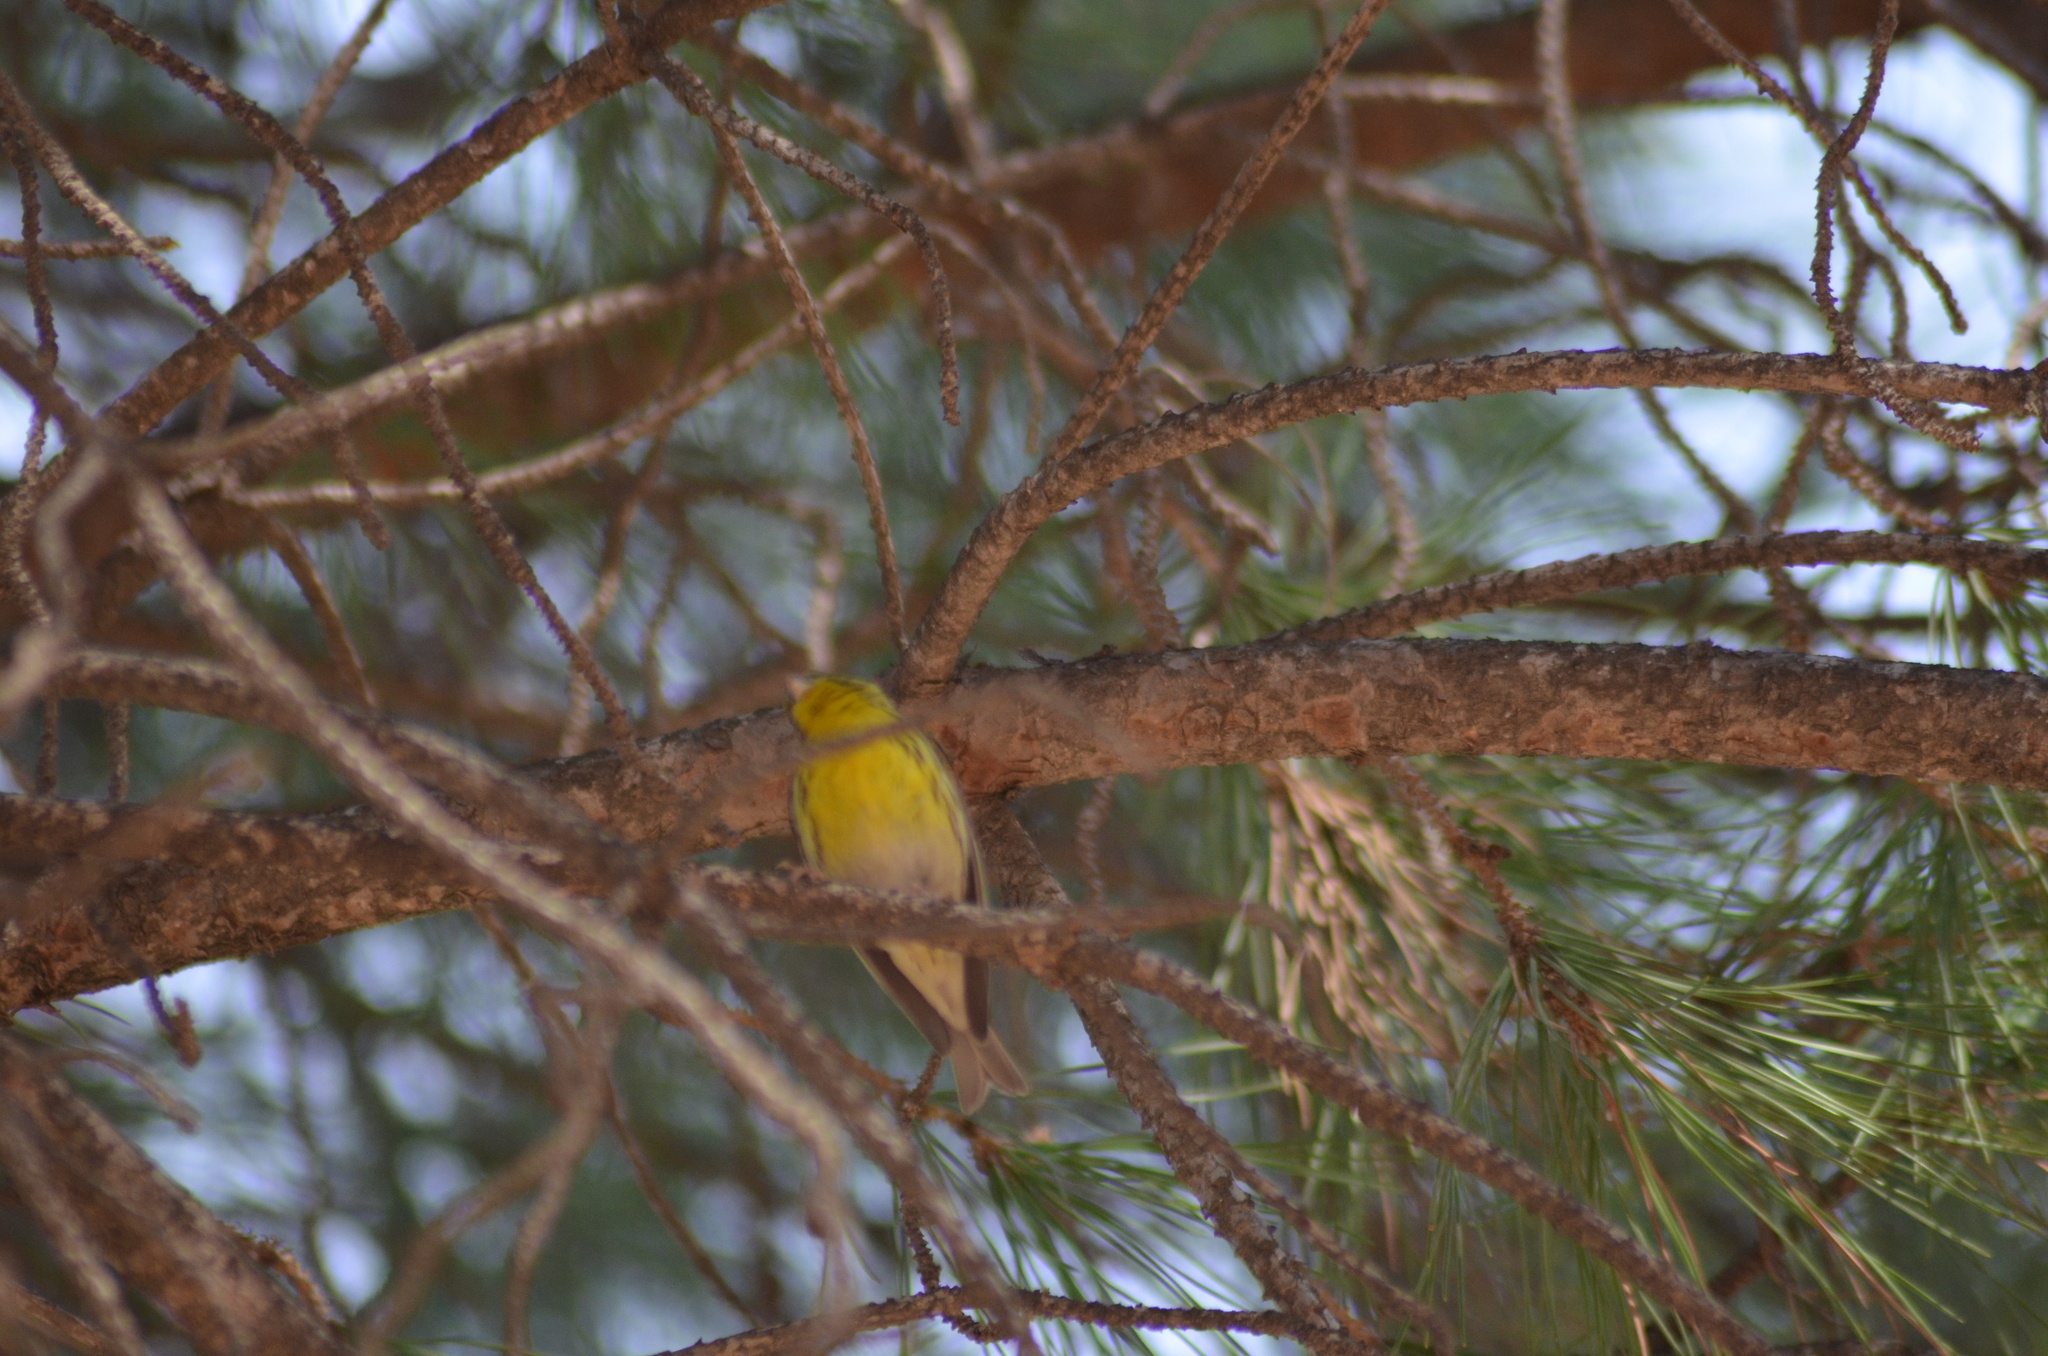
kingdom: Animalia
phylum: Chordata
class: Aves
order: Passeriformes
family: Fringillidae
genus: Serinus
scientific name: Serinus serinus
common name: European serin
